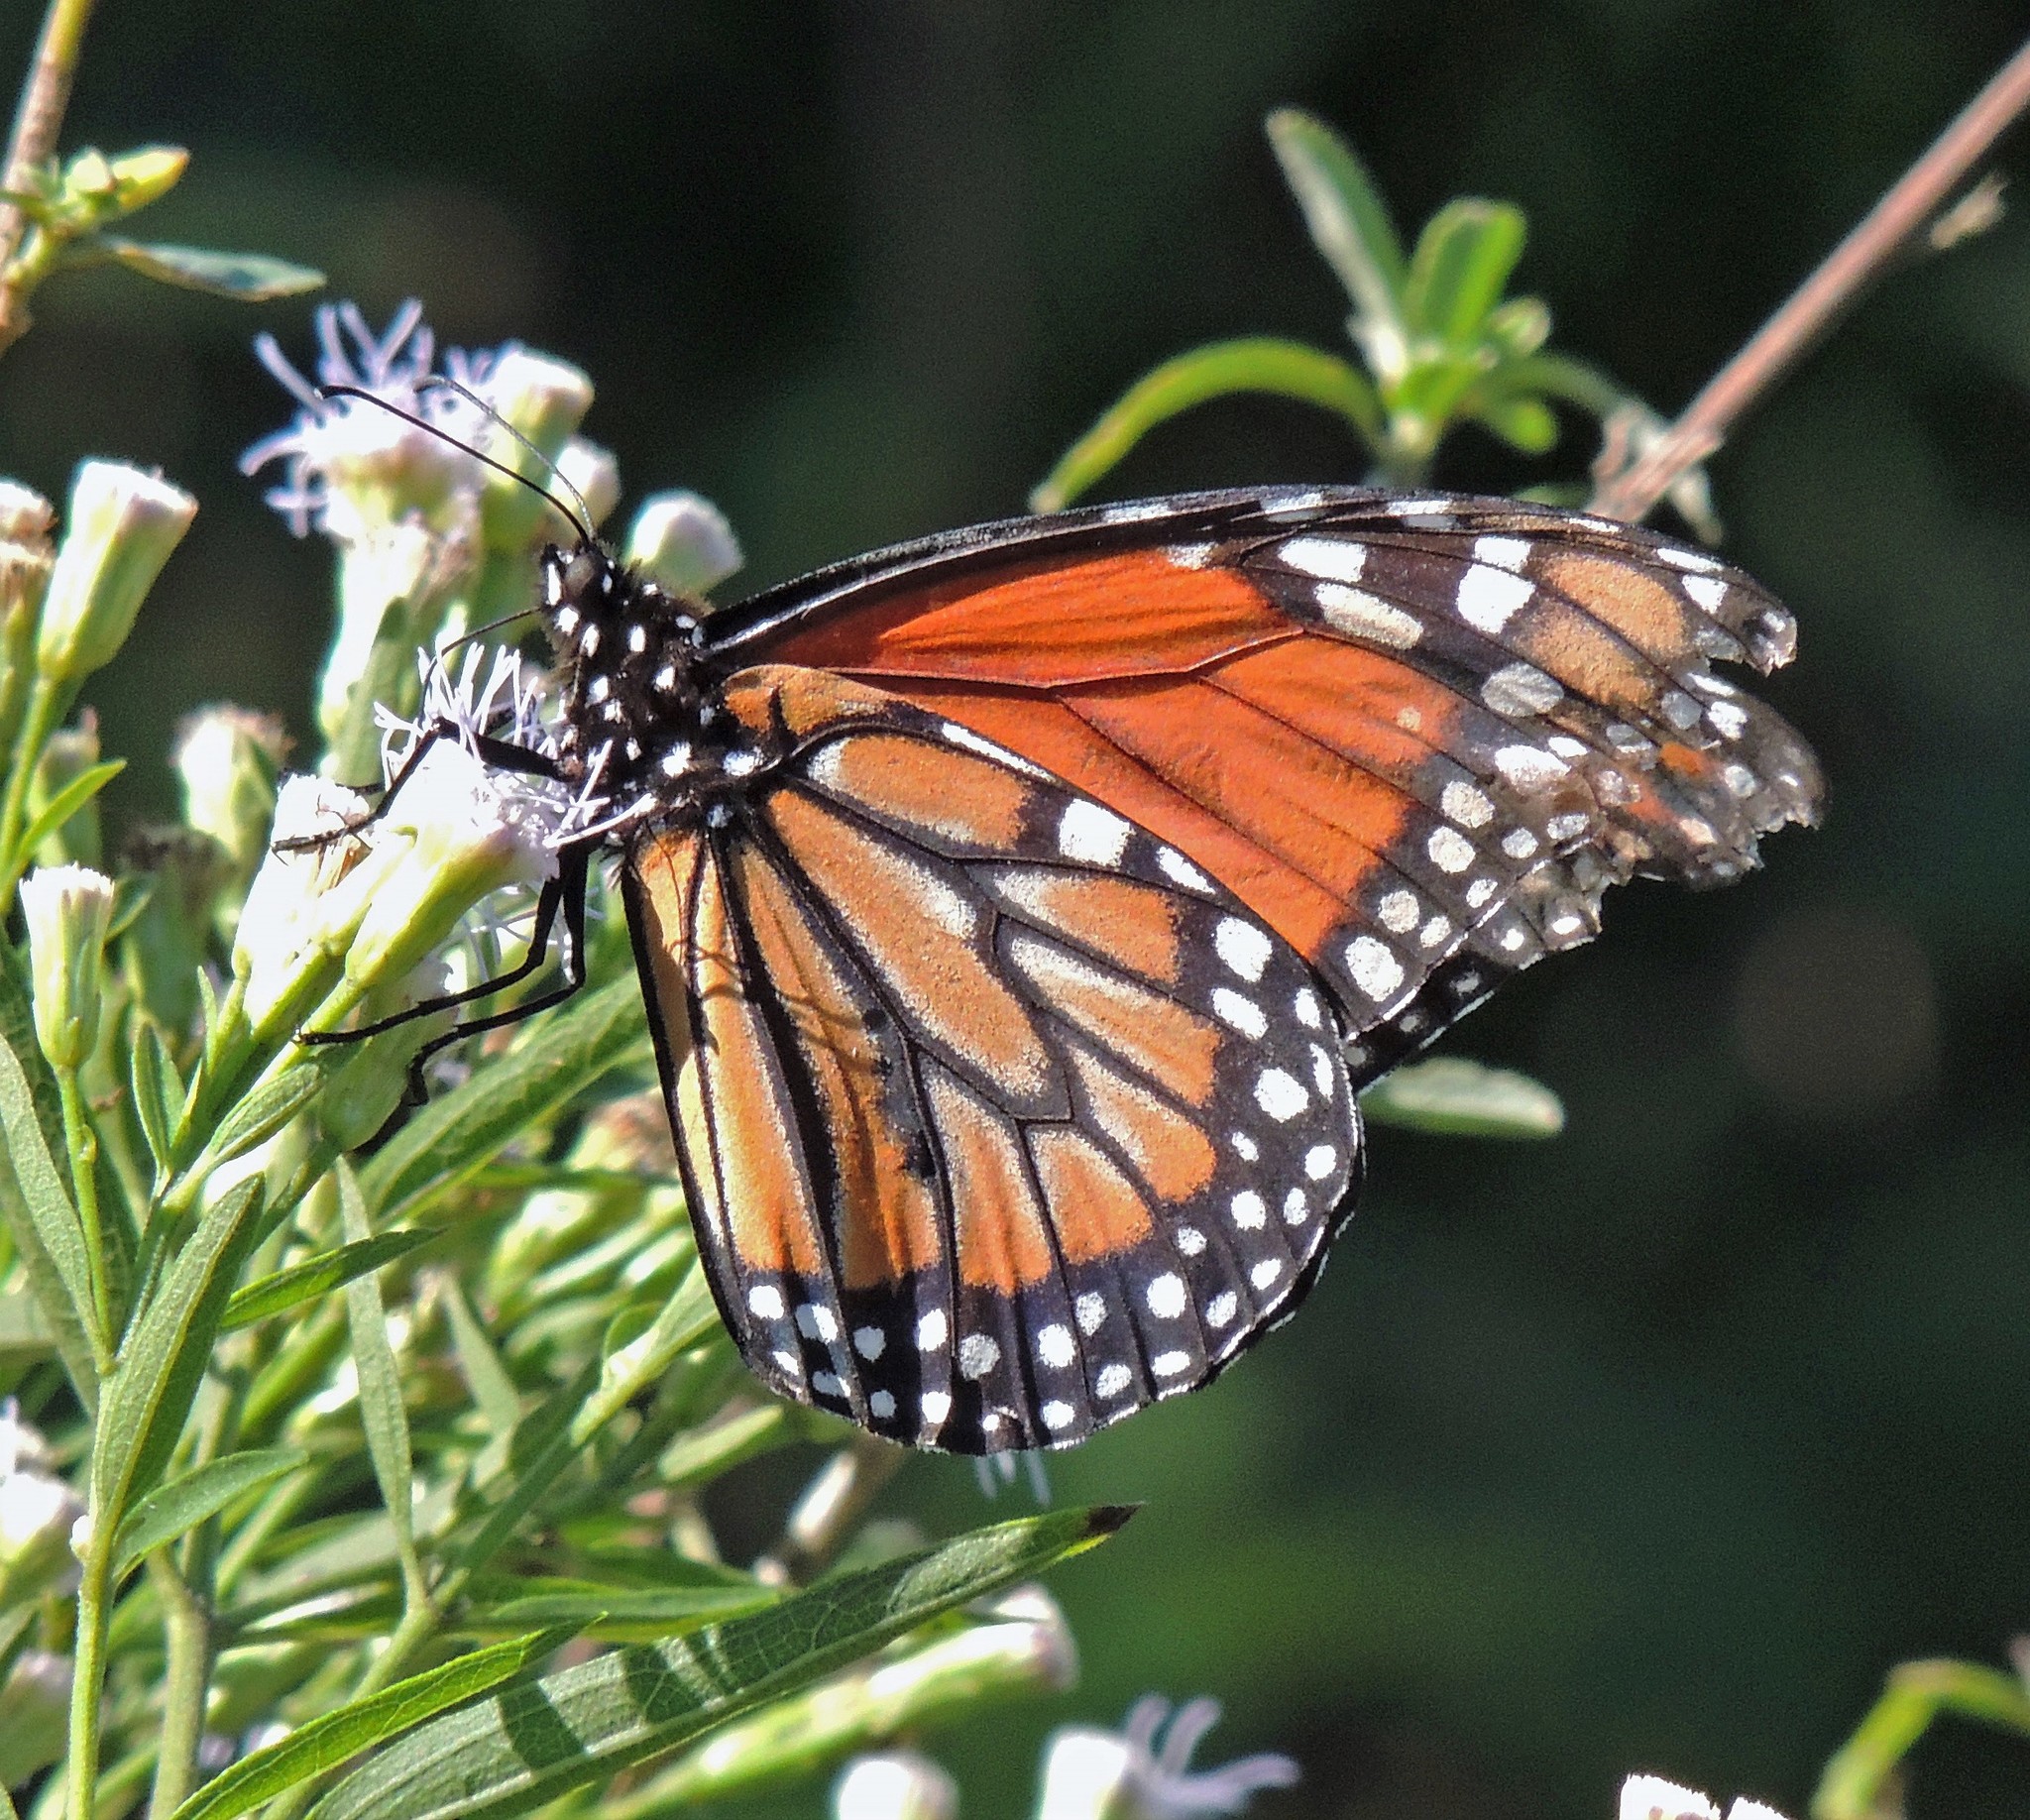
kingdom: Animalia
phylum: Arthropoda
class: Insecta
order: Lepidoptera
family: Nymphalidae
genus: Danaus
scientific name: Danaus erippus
